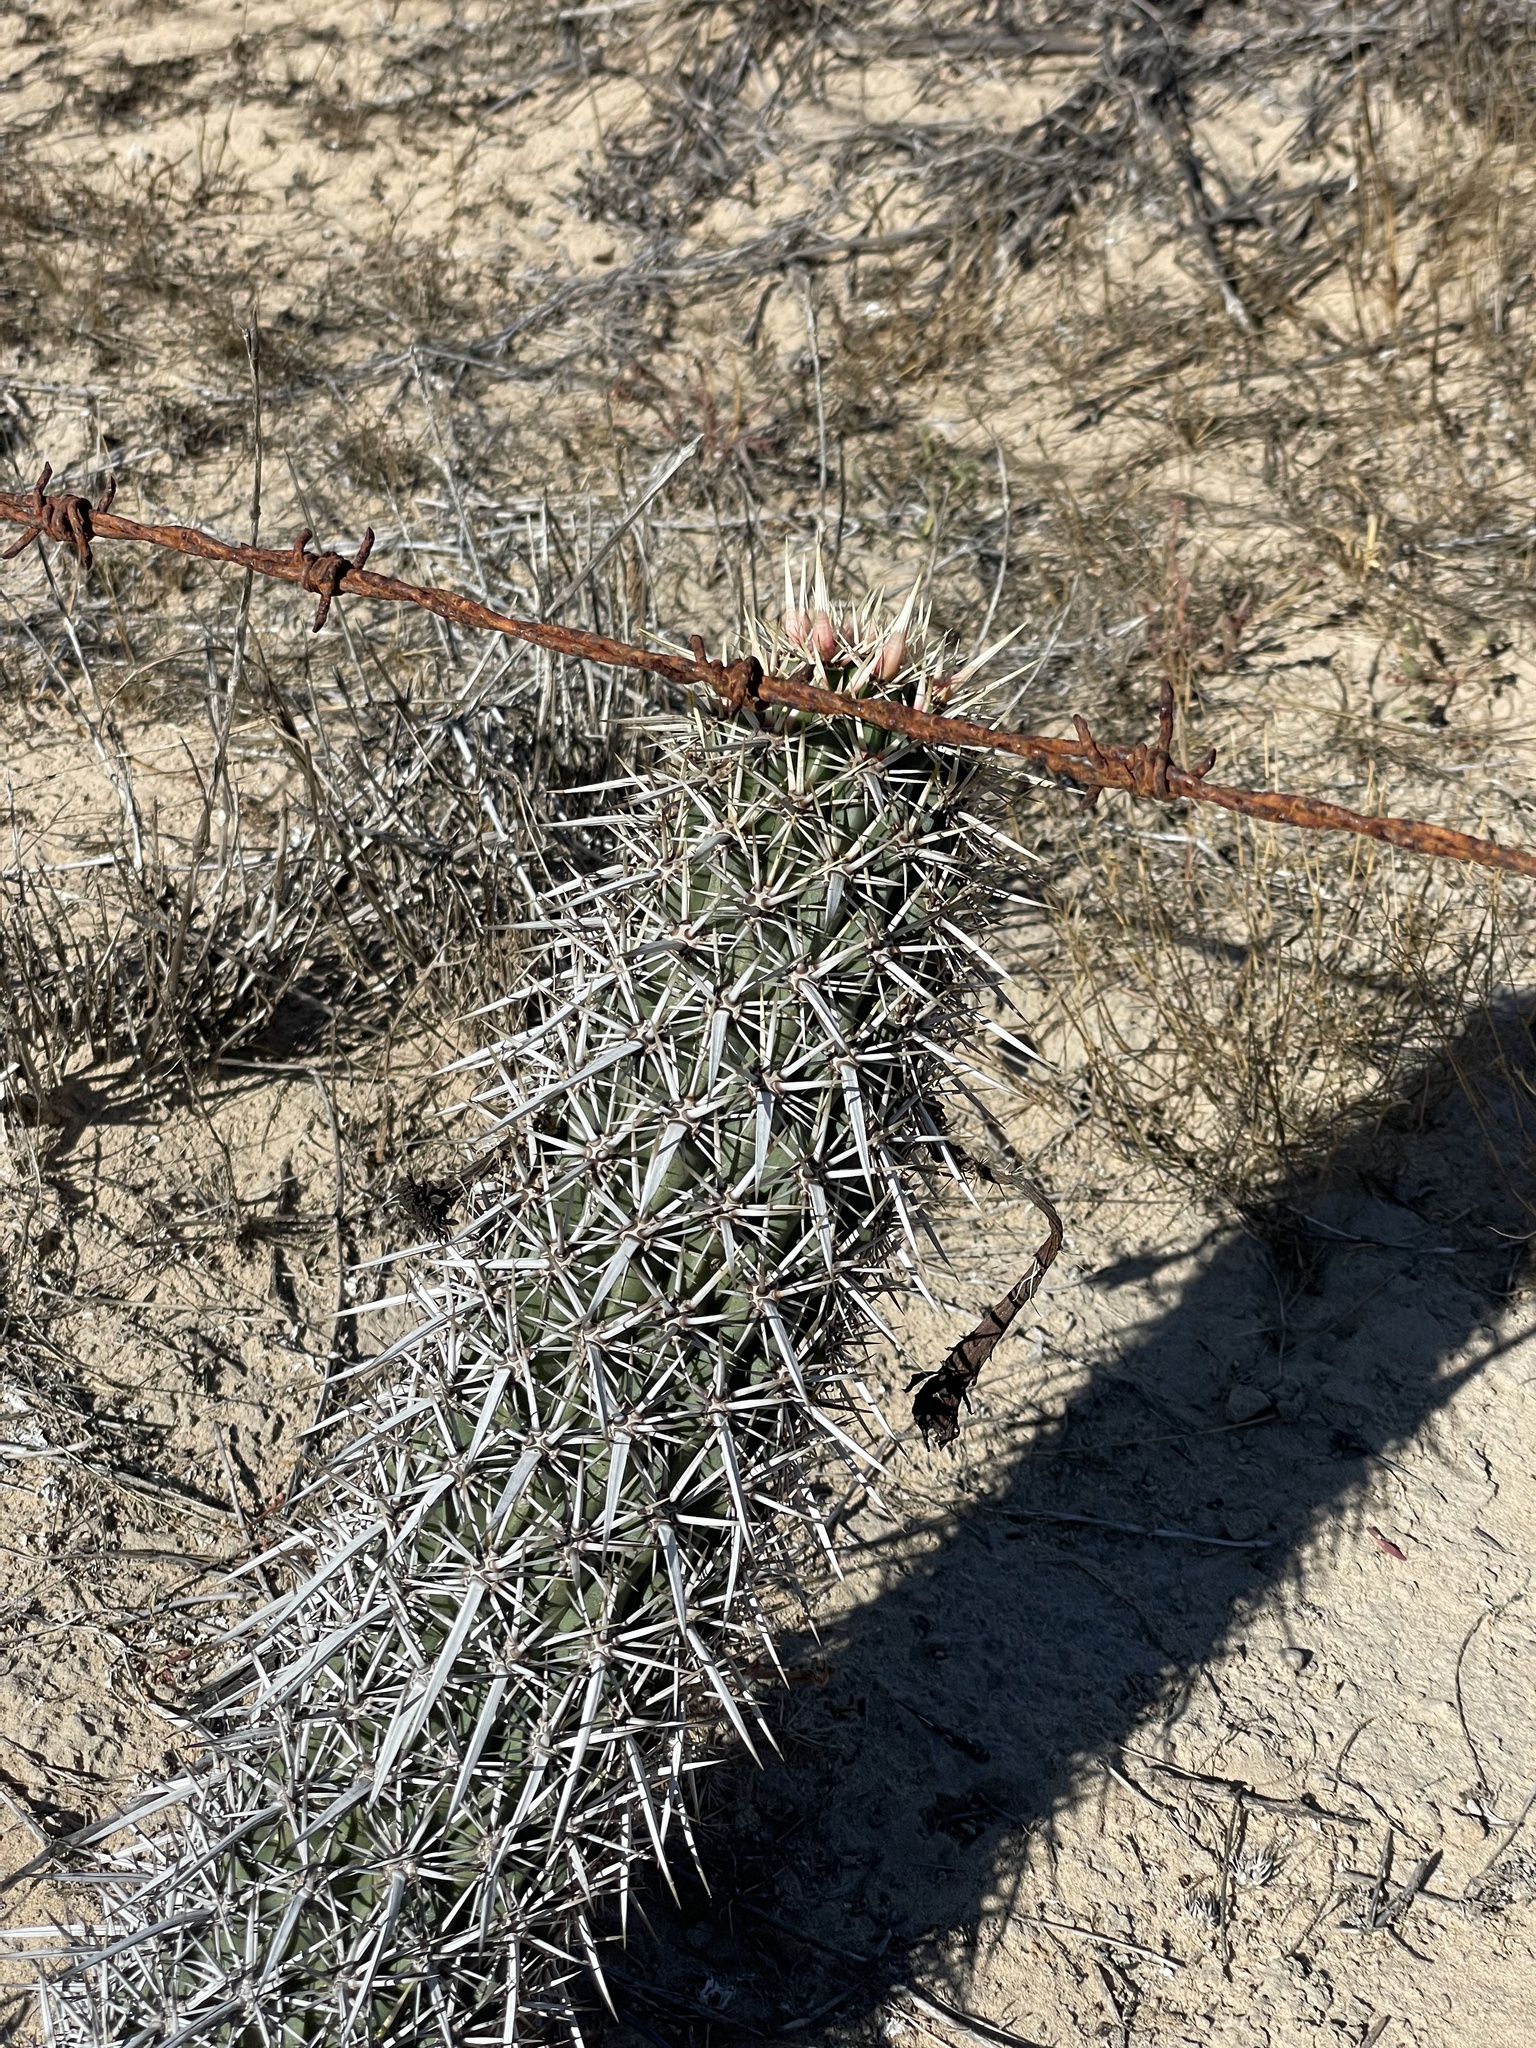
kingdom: Plantae
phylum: Tracheophyta
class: Magnoliopsida
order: Caryophyllales
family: Cactaceae
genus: Stenocereus
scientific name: Stenocereus eruca
